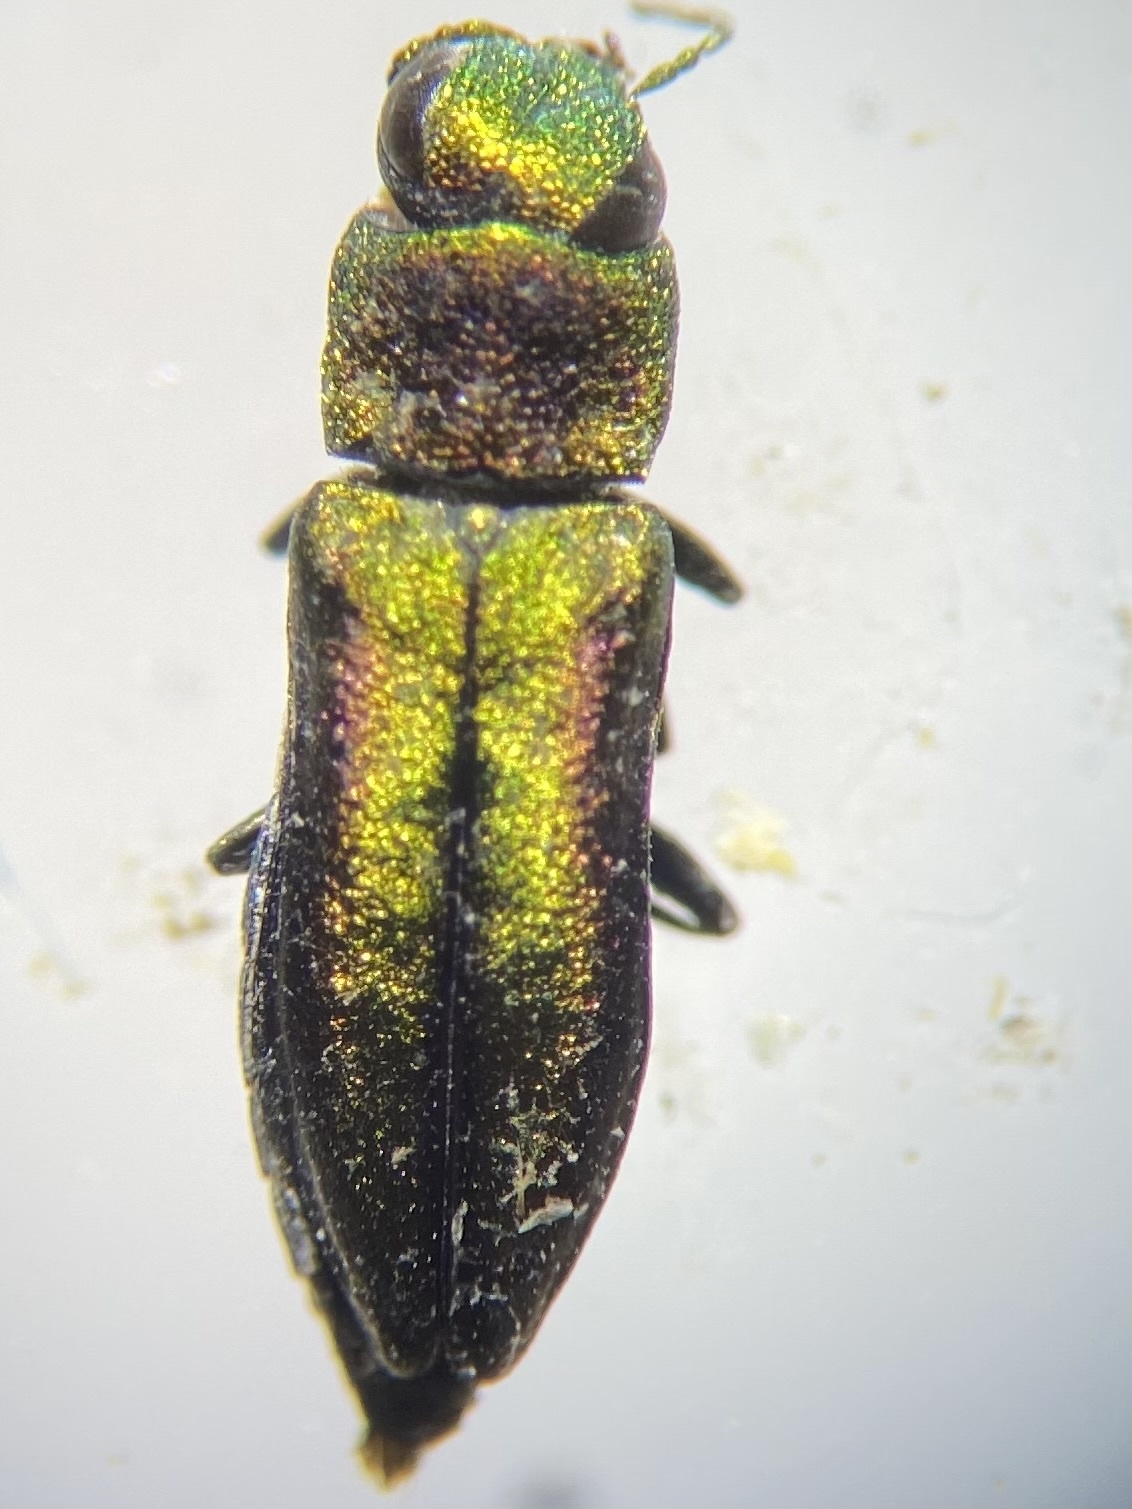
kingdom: Animalia
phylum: Arthropoda
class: Insecta
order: Coleoptera
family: Buprestidae
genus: Anthaxia
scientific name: Anthaxia dichroa
